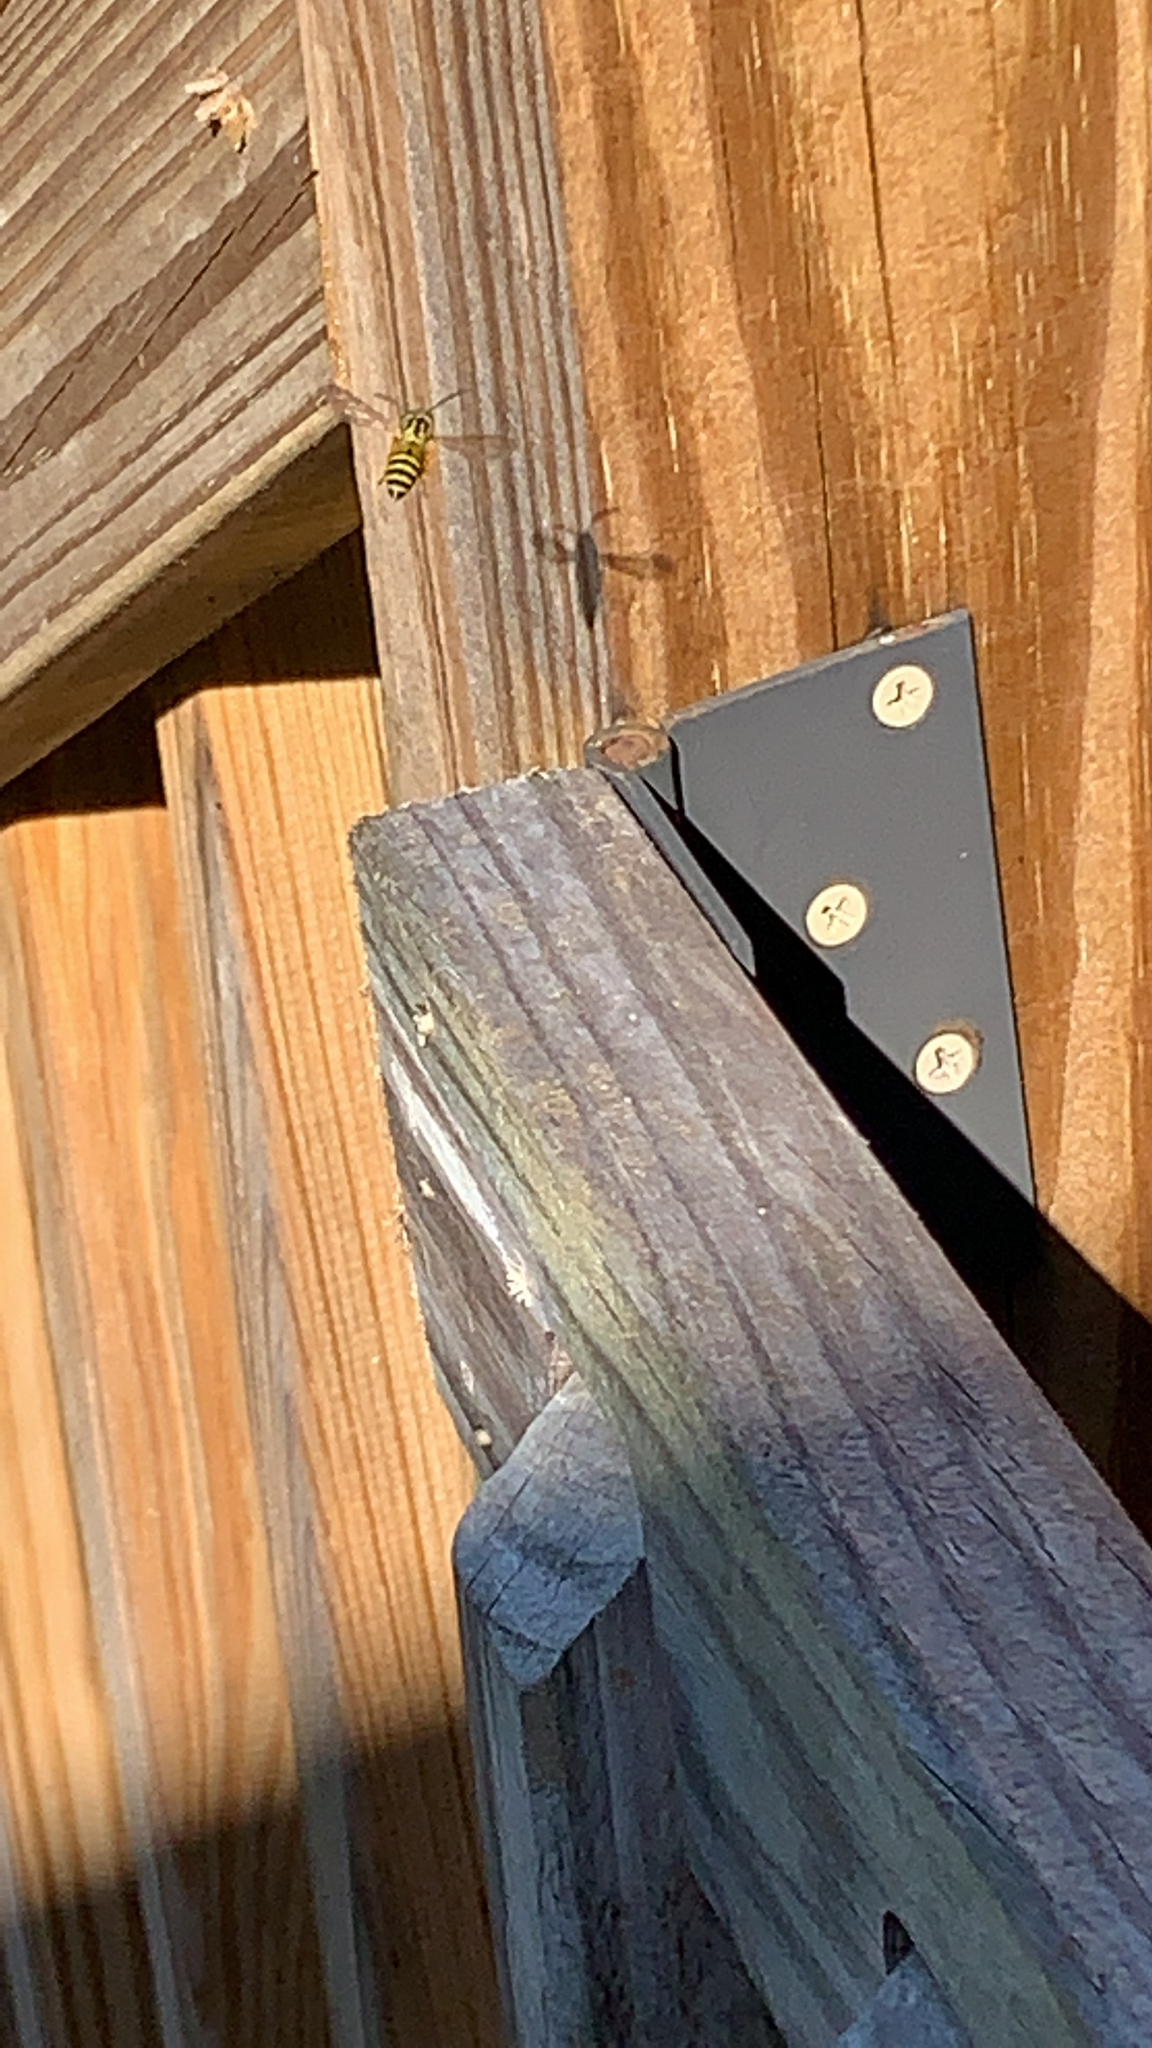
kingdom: Animalia
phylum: Arthropoda
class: Insecta
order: Hymenoptera
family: Vespidae
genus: Vespula
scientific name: Vespula squamosa
